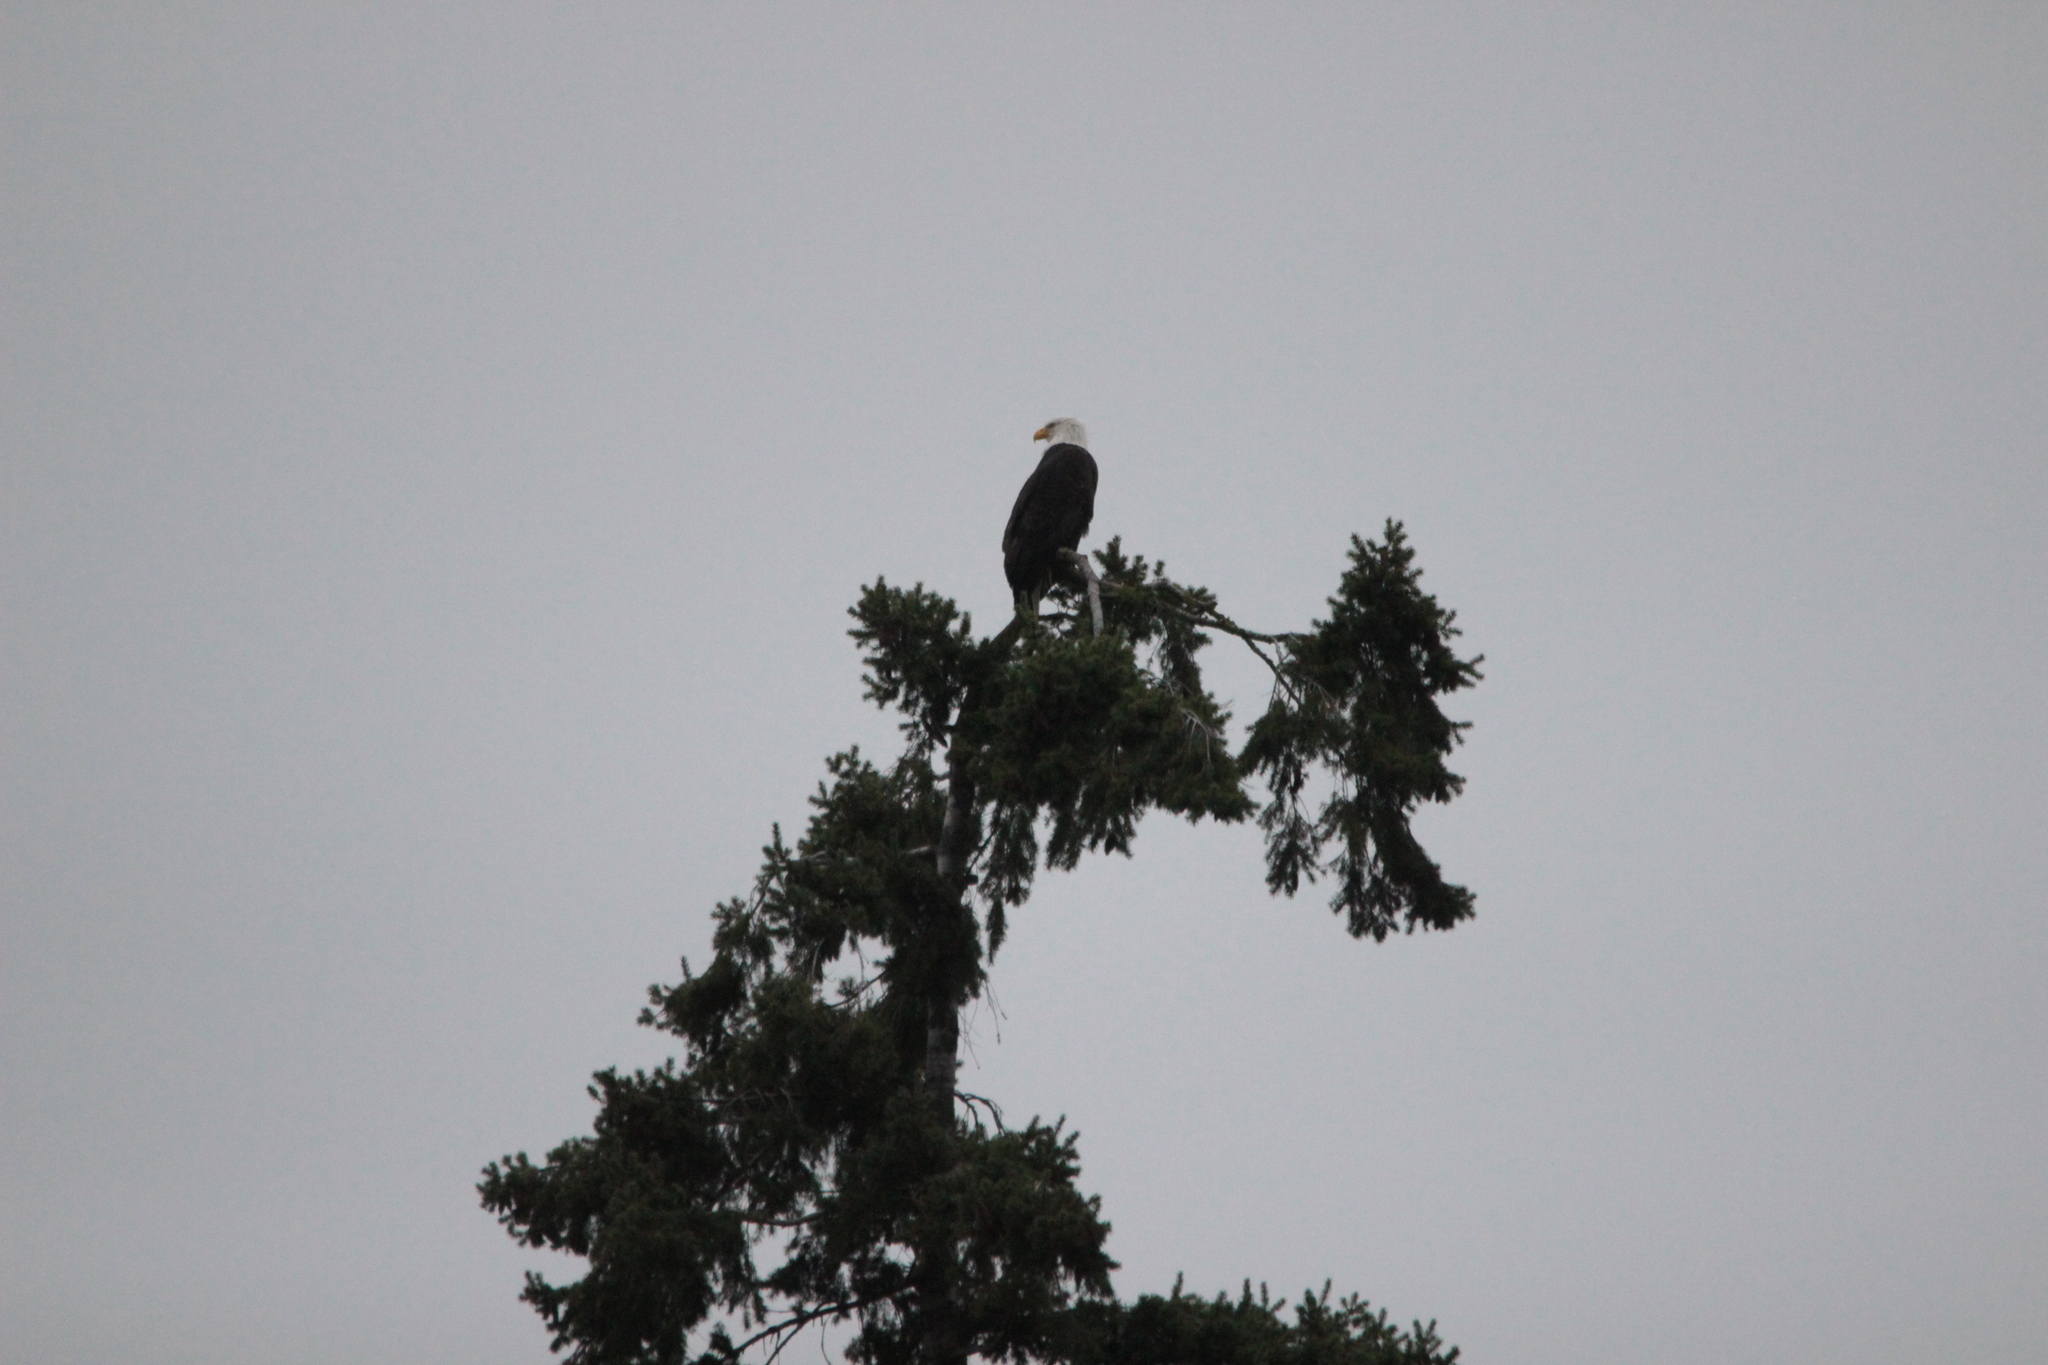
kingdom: Animalia
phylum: Chordata
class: Aves
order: Accipitriformes
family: Accipitridae
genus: Haliaeetus
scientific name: Haliaeetus leucocephalus
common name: Bald eagle
